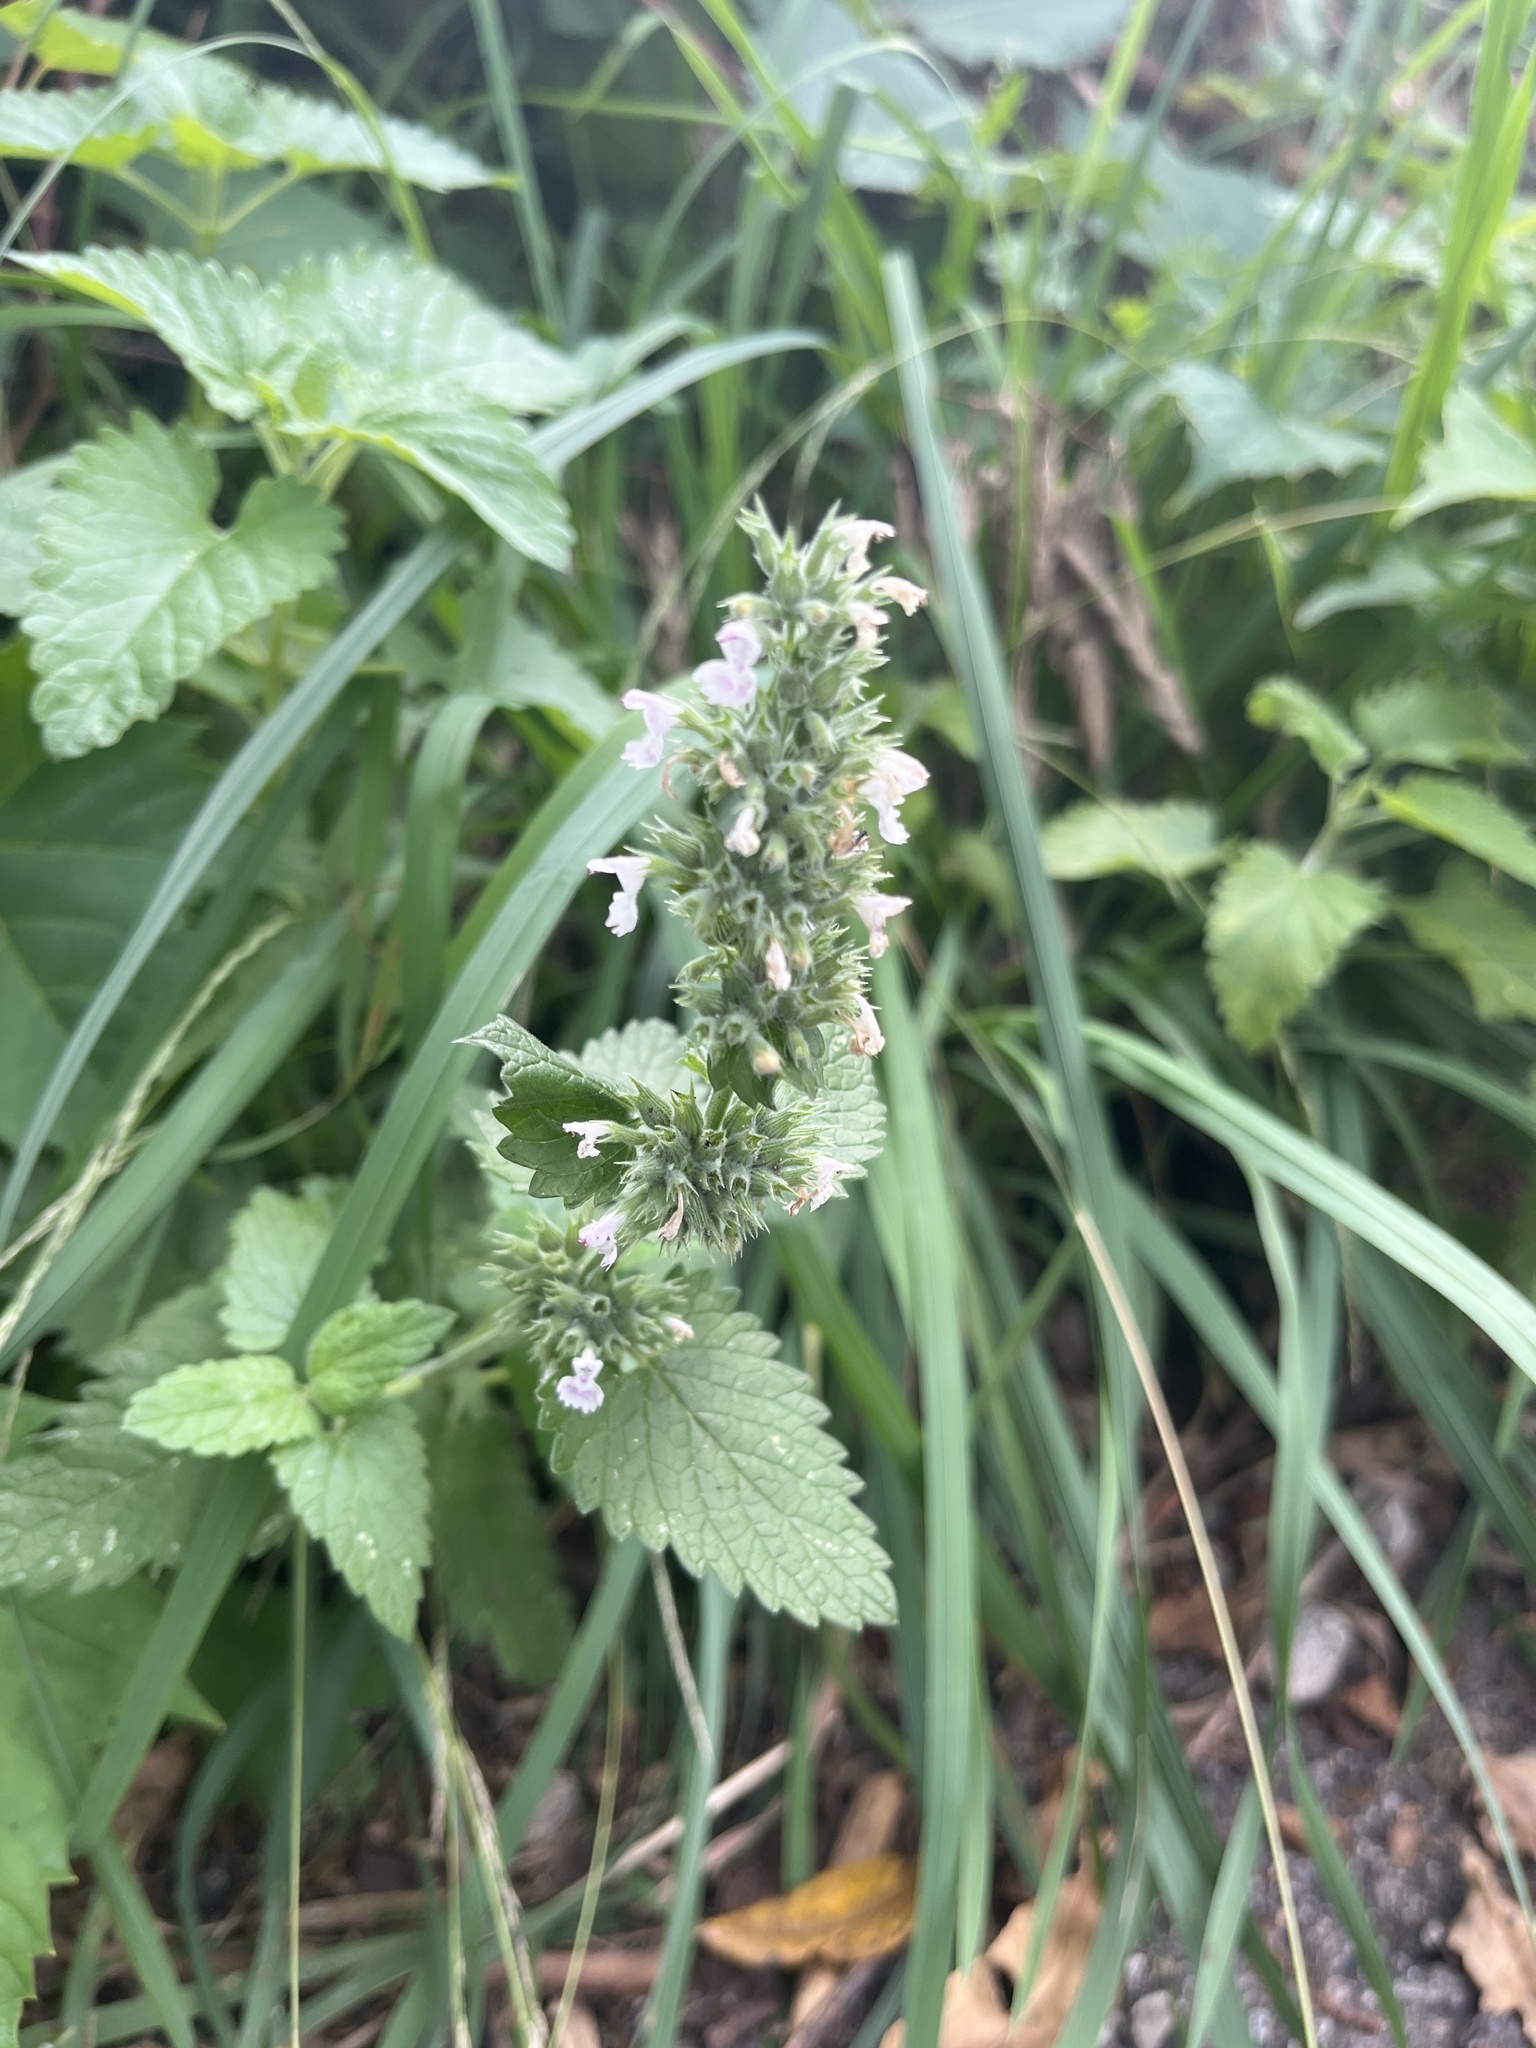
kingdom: Plantae
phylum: Tracheophyta
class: Magnoliopsida
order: Lamiales
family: Lamiaceae
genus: Nepeta
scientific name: Nepeta cataria
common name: Catnip
